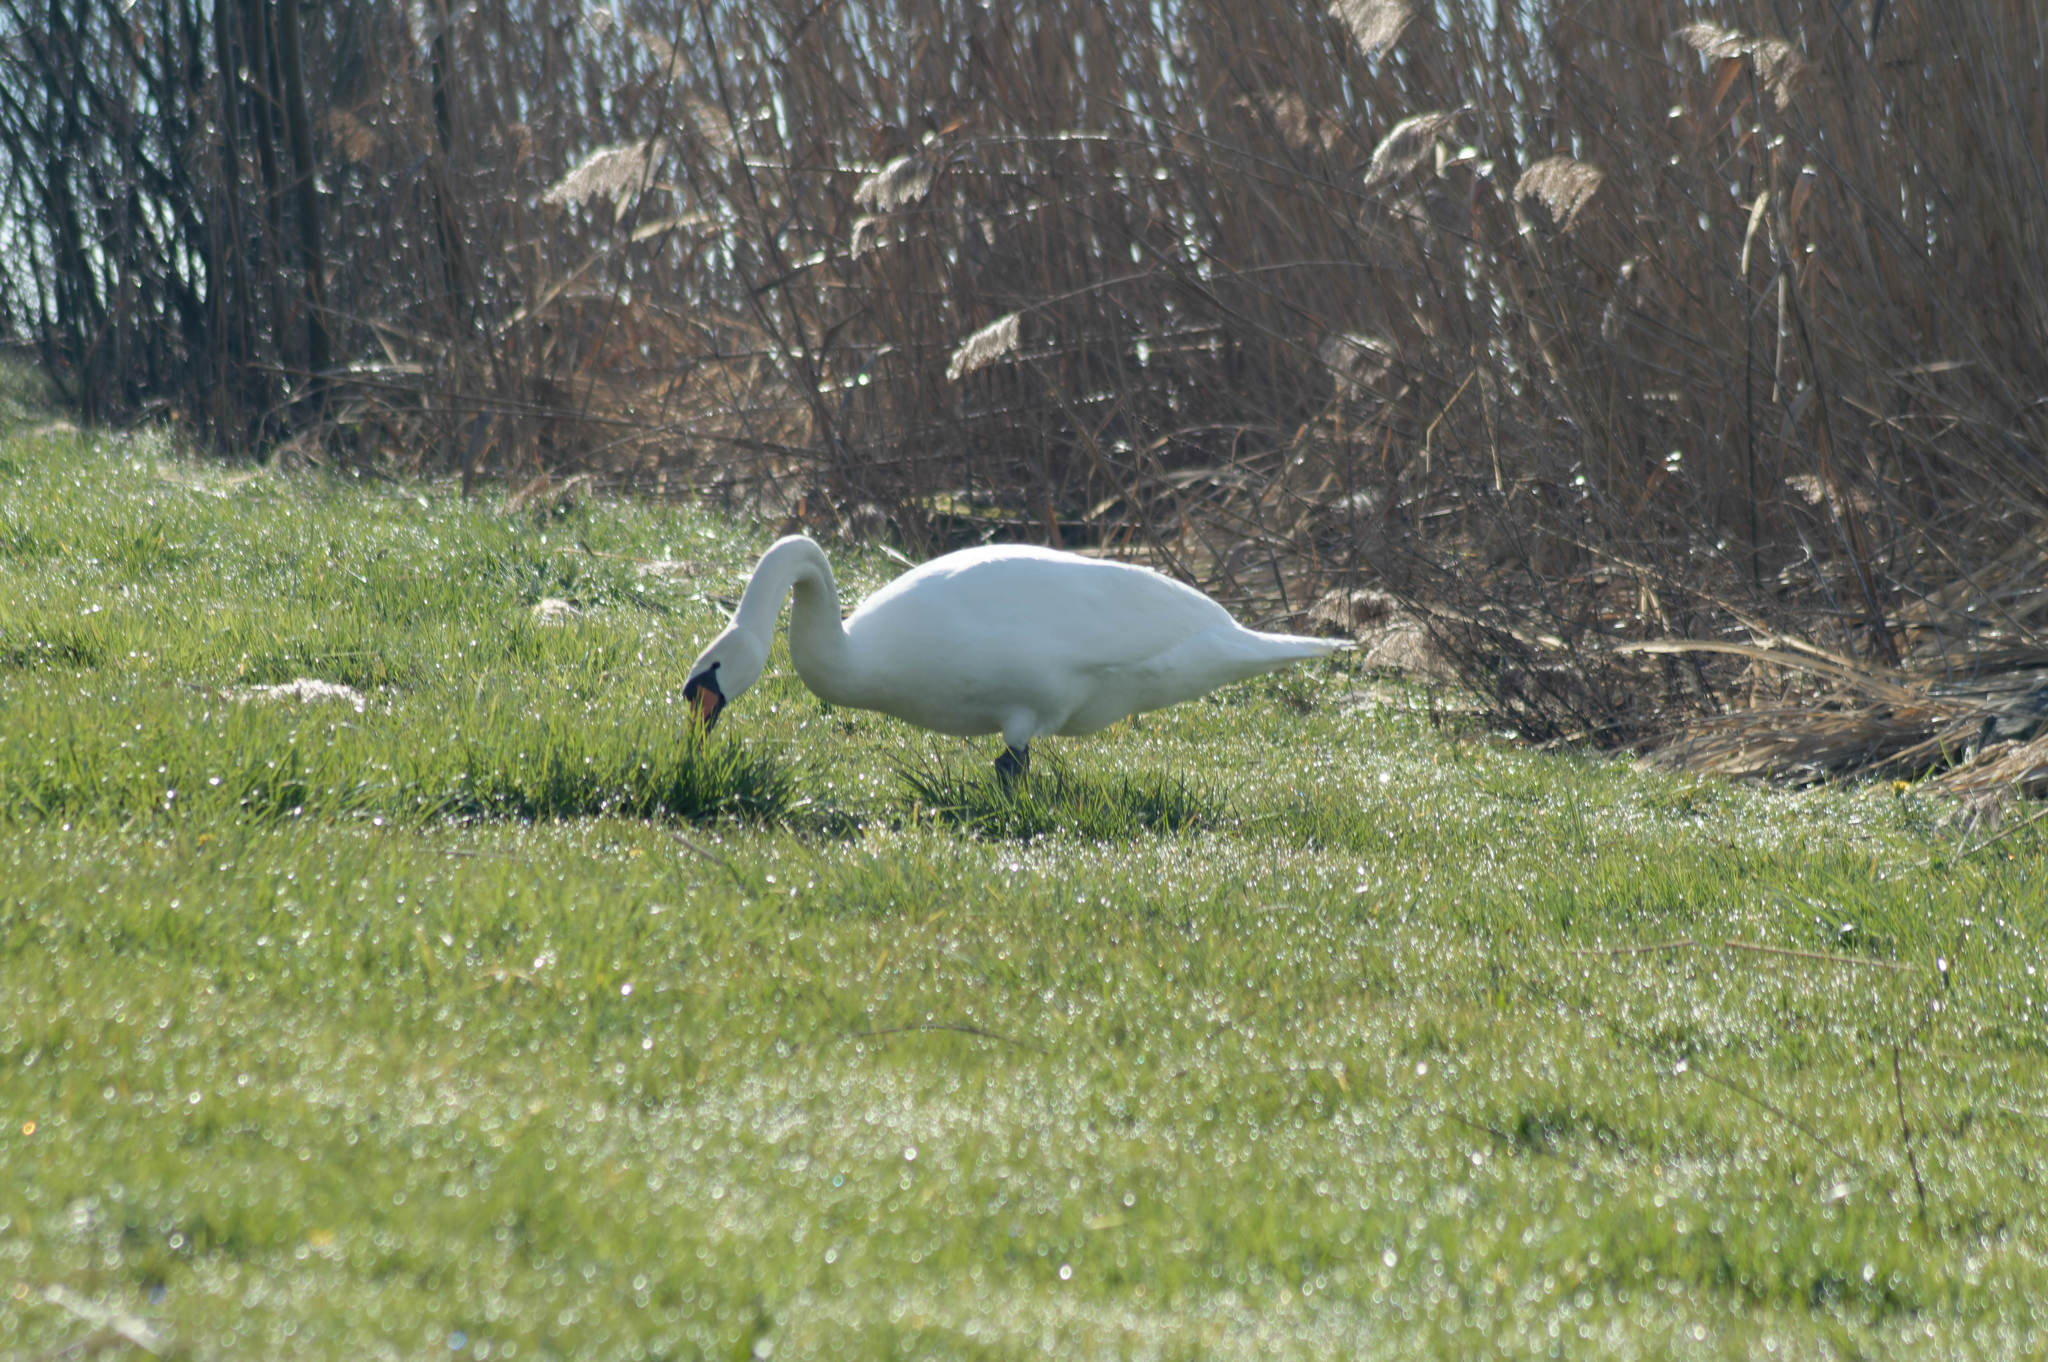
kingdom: Animalia
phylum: Chordata
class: Aves
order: Anseriformes
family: Anatidae
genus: Cygnus
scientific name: Cygnus olor
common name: Mute swan
